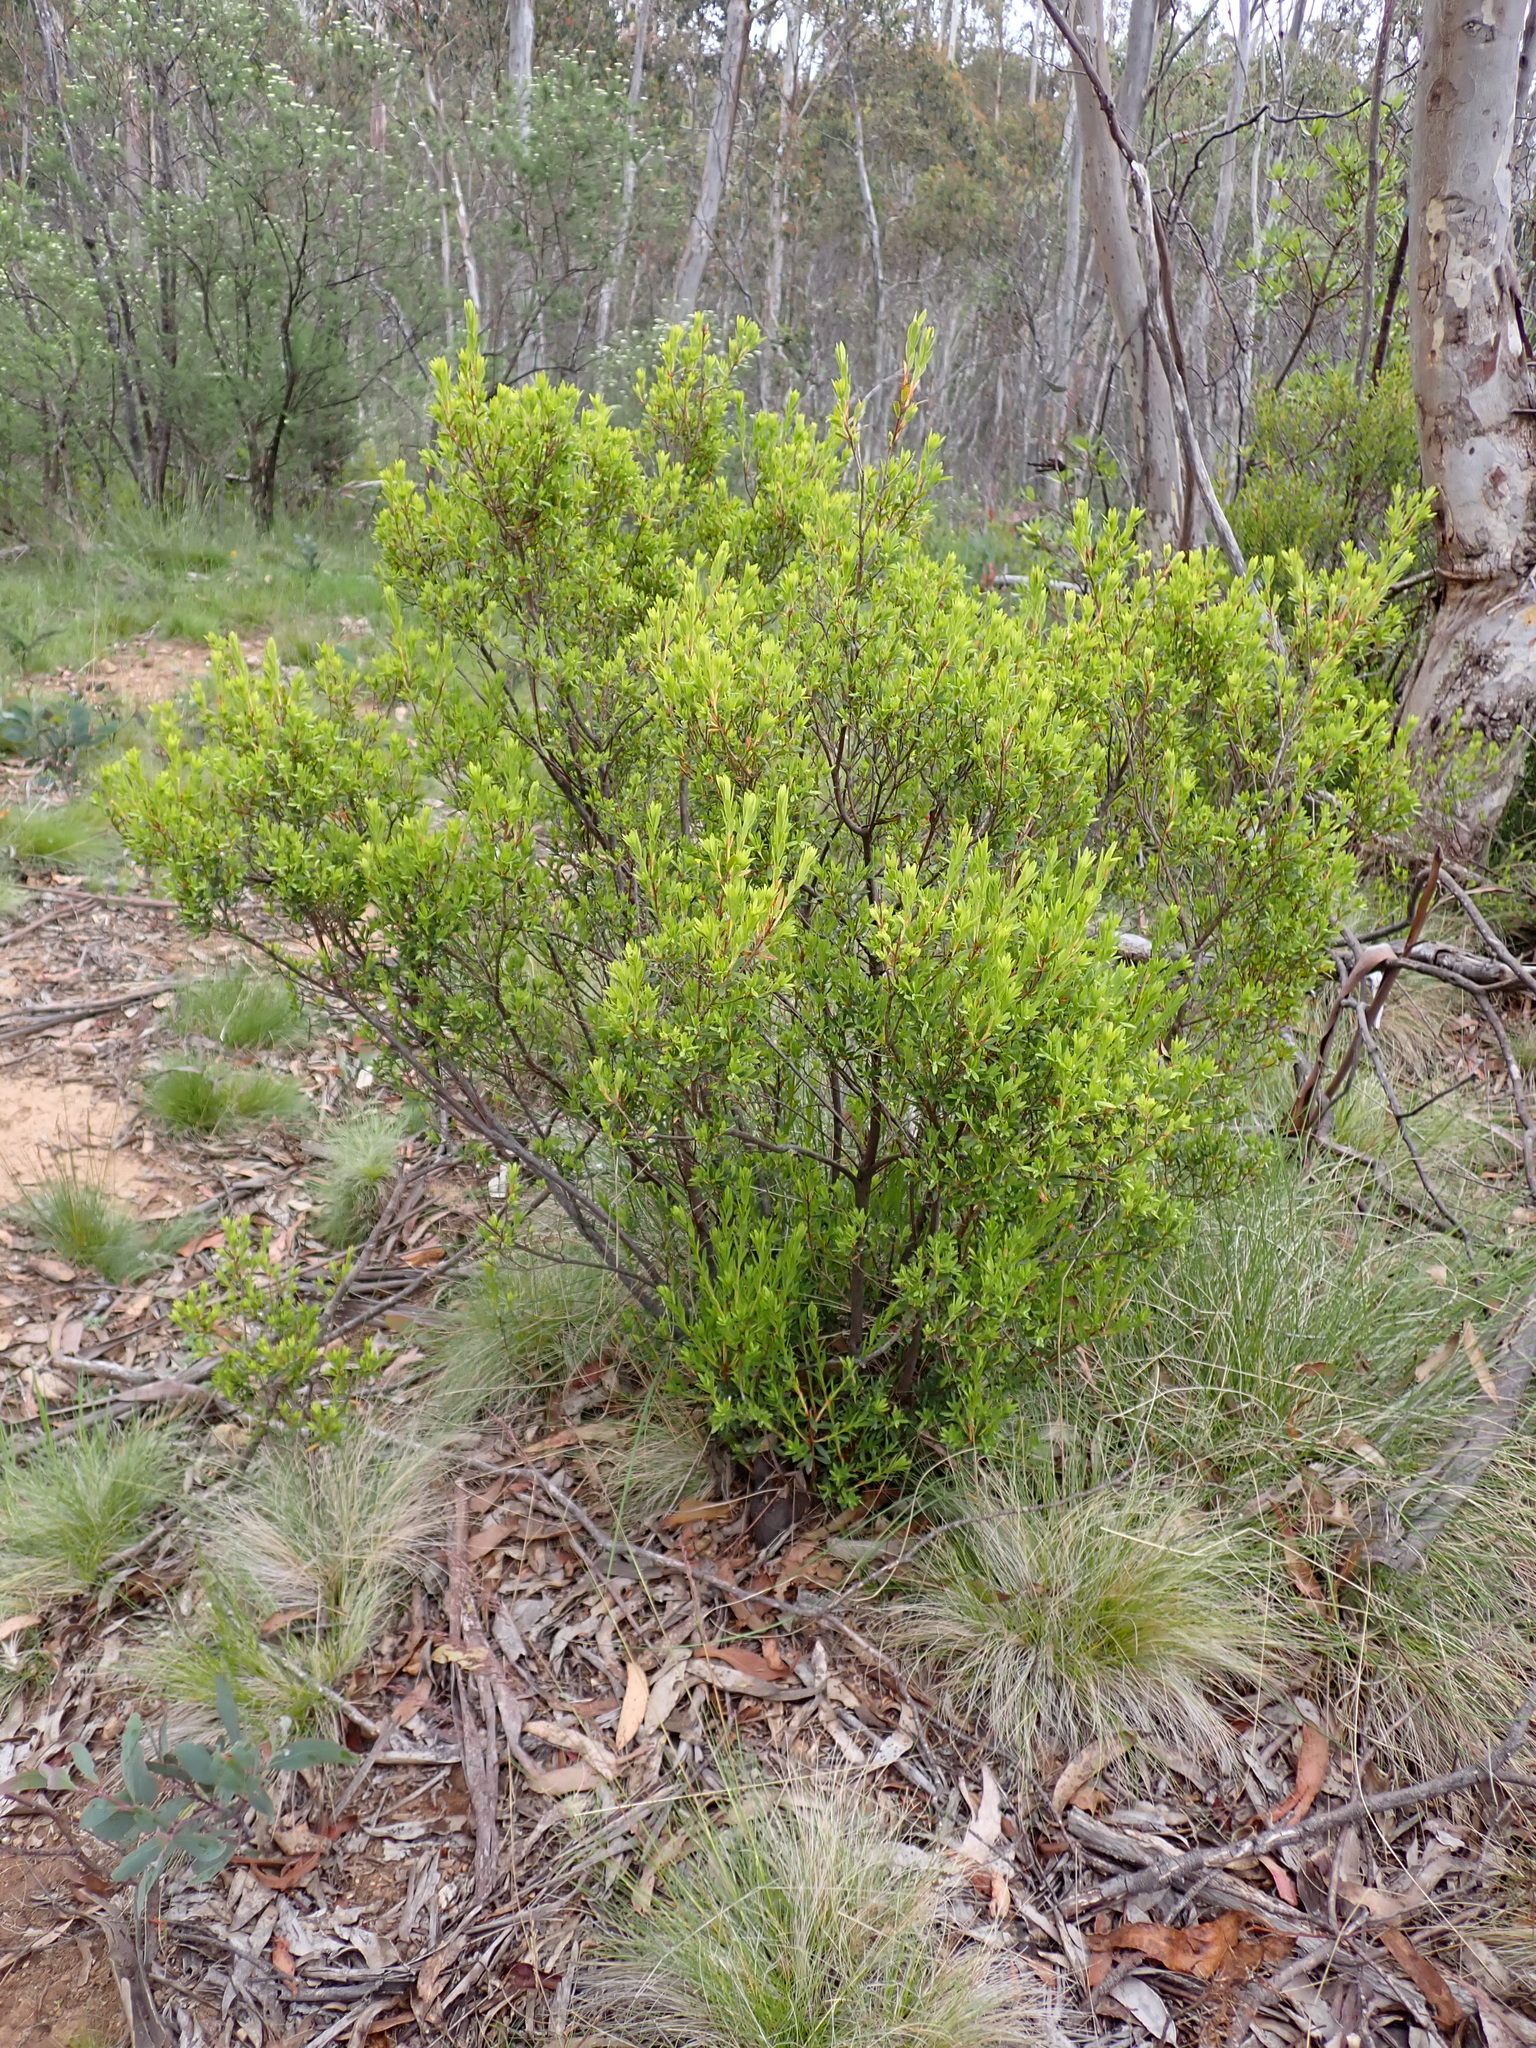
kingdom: Plantae
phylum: Tracheophyta
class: Magnoliopsida
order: Ericales
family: Ericaceae
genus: Leucopogon
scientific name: Leucopogon gelidus
